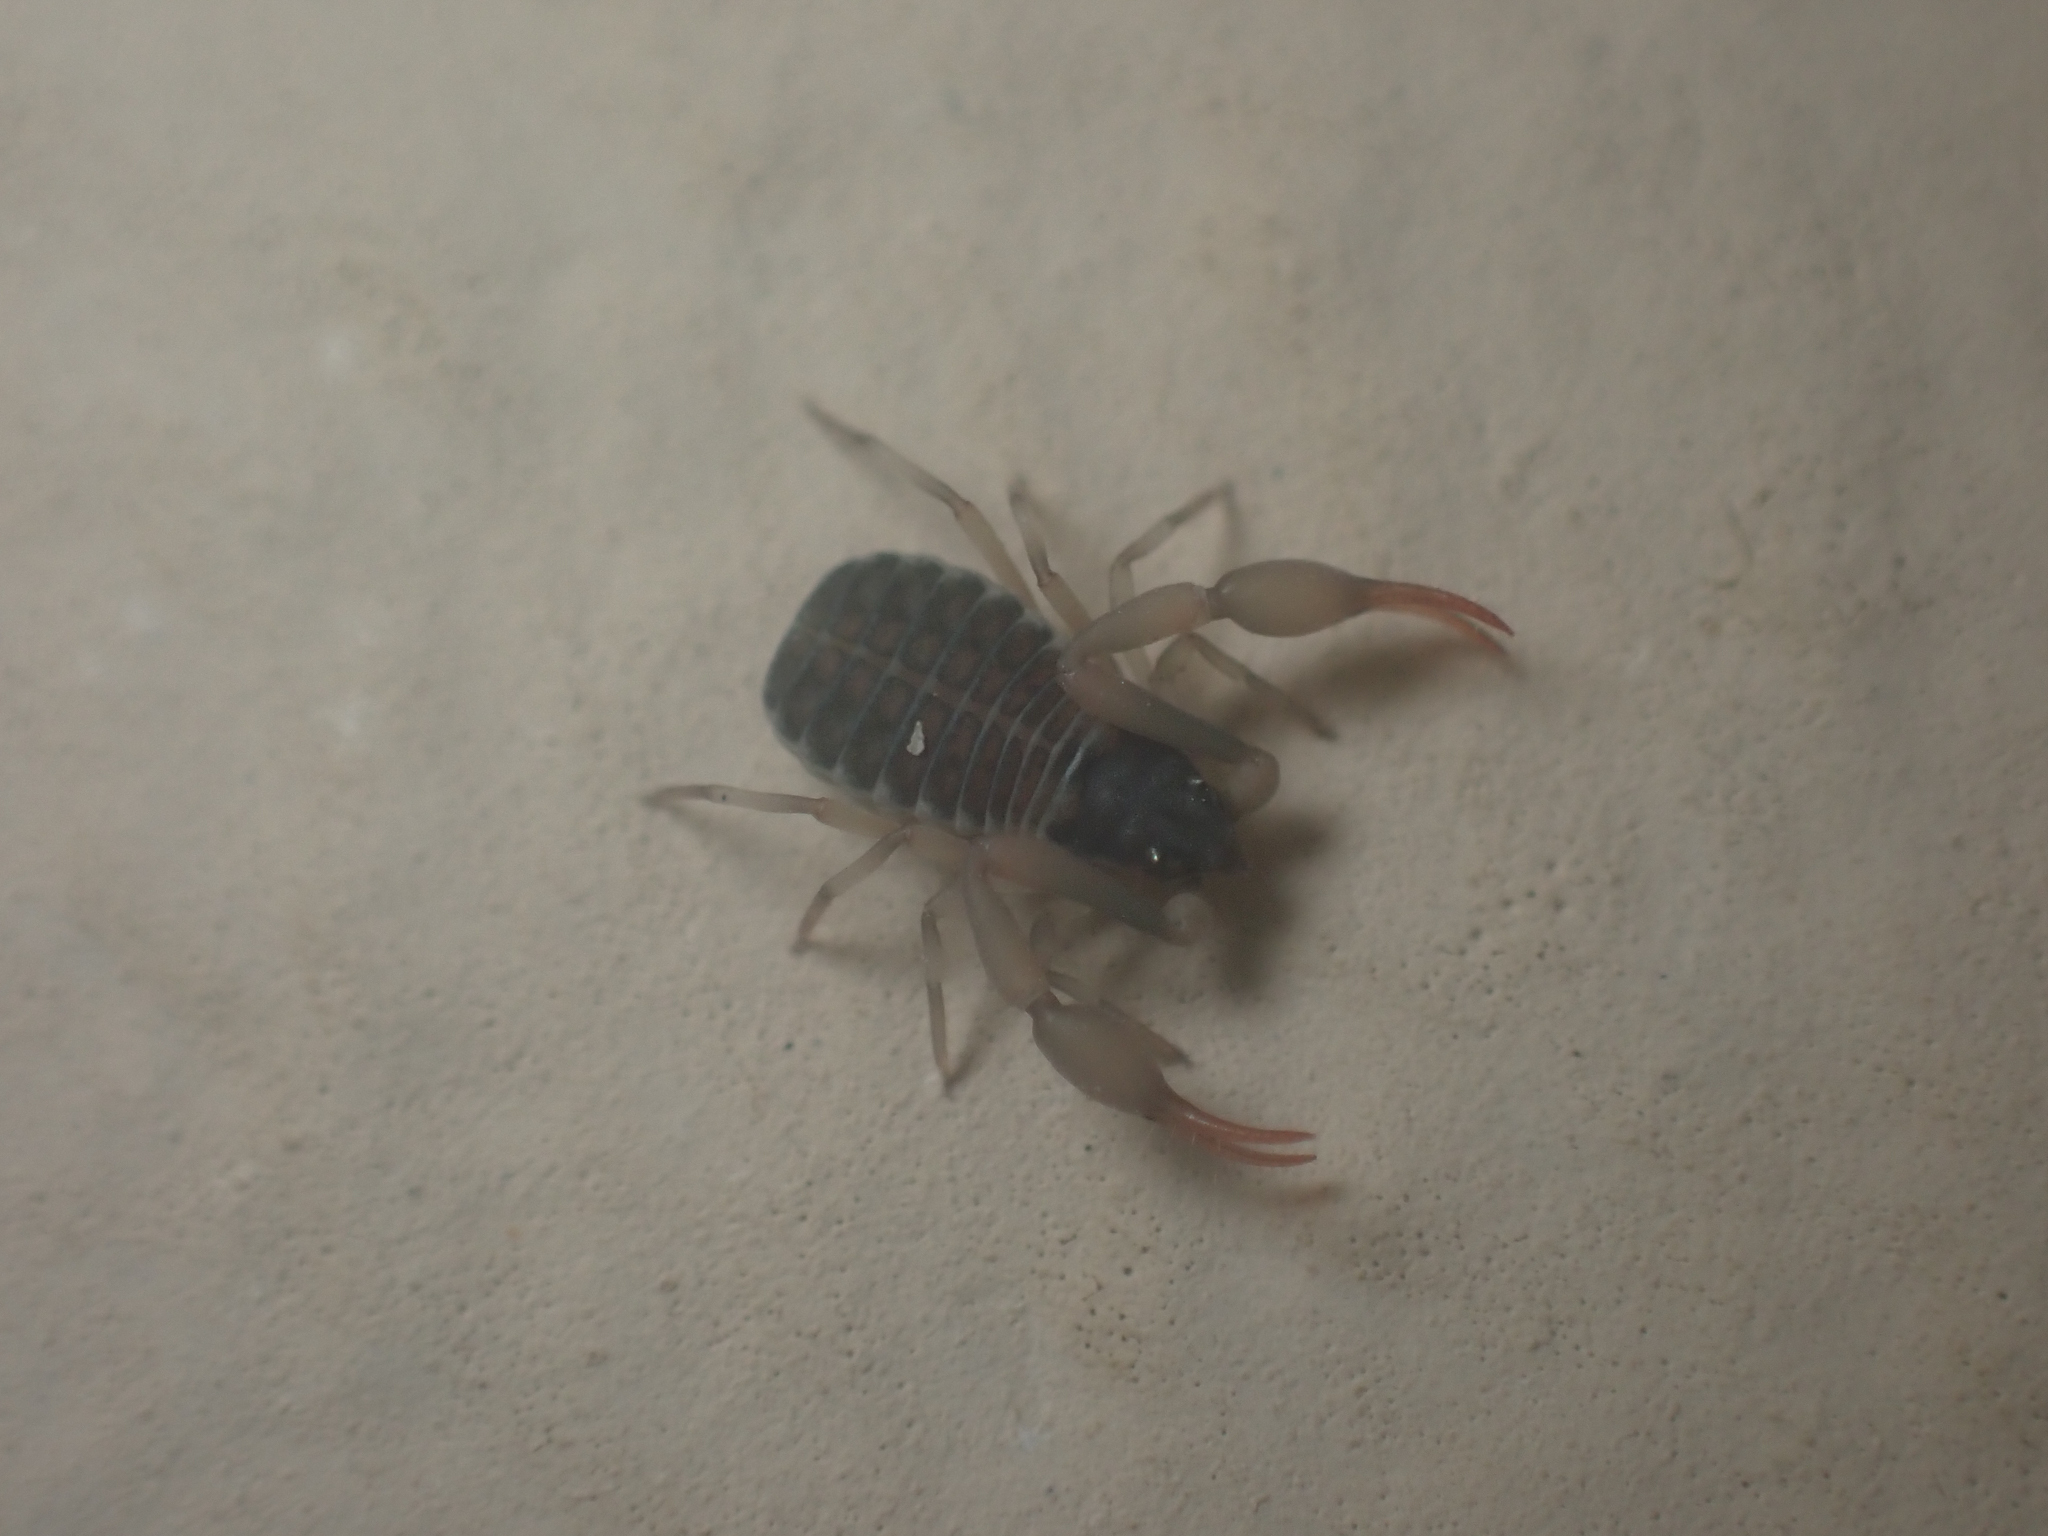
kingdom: Animalia
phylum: Arthropoda
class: Arachnida
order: Pseudoscorpiones
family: Garypidae
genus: Anchigarypus
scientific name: Anchigarypus californicus
